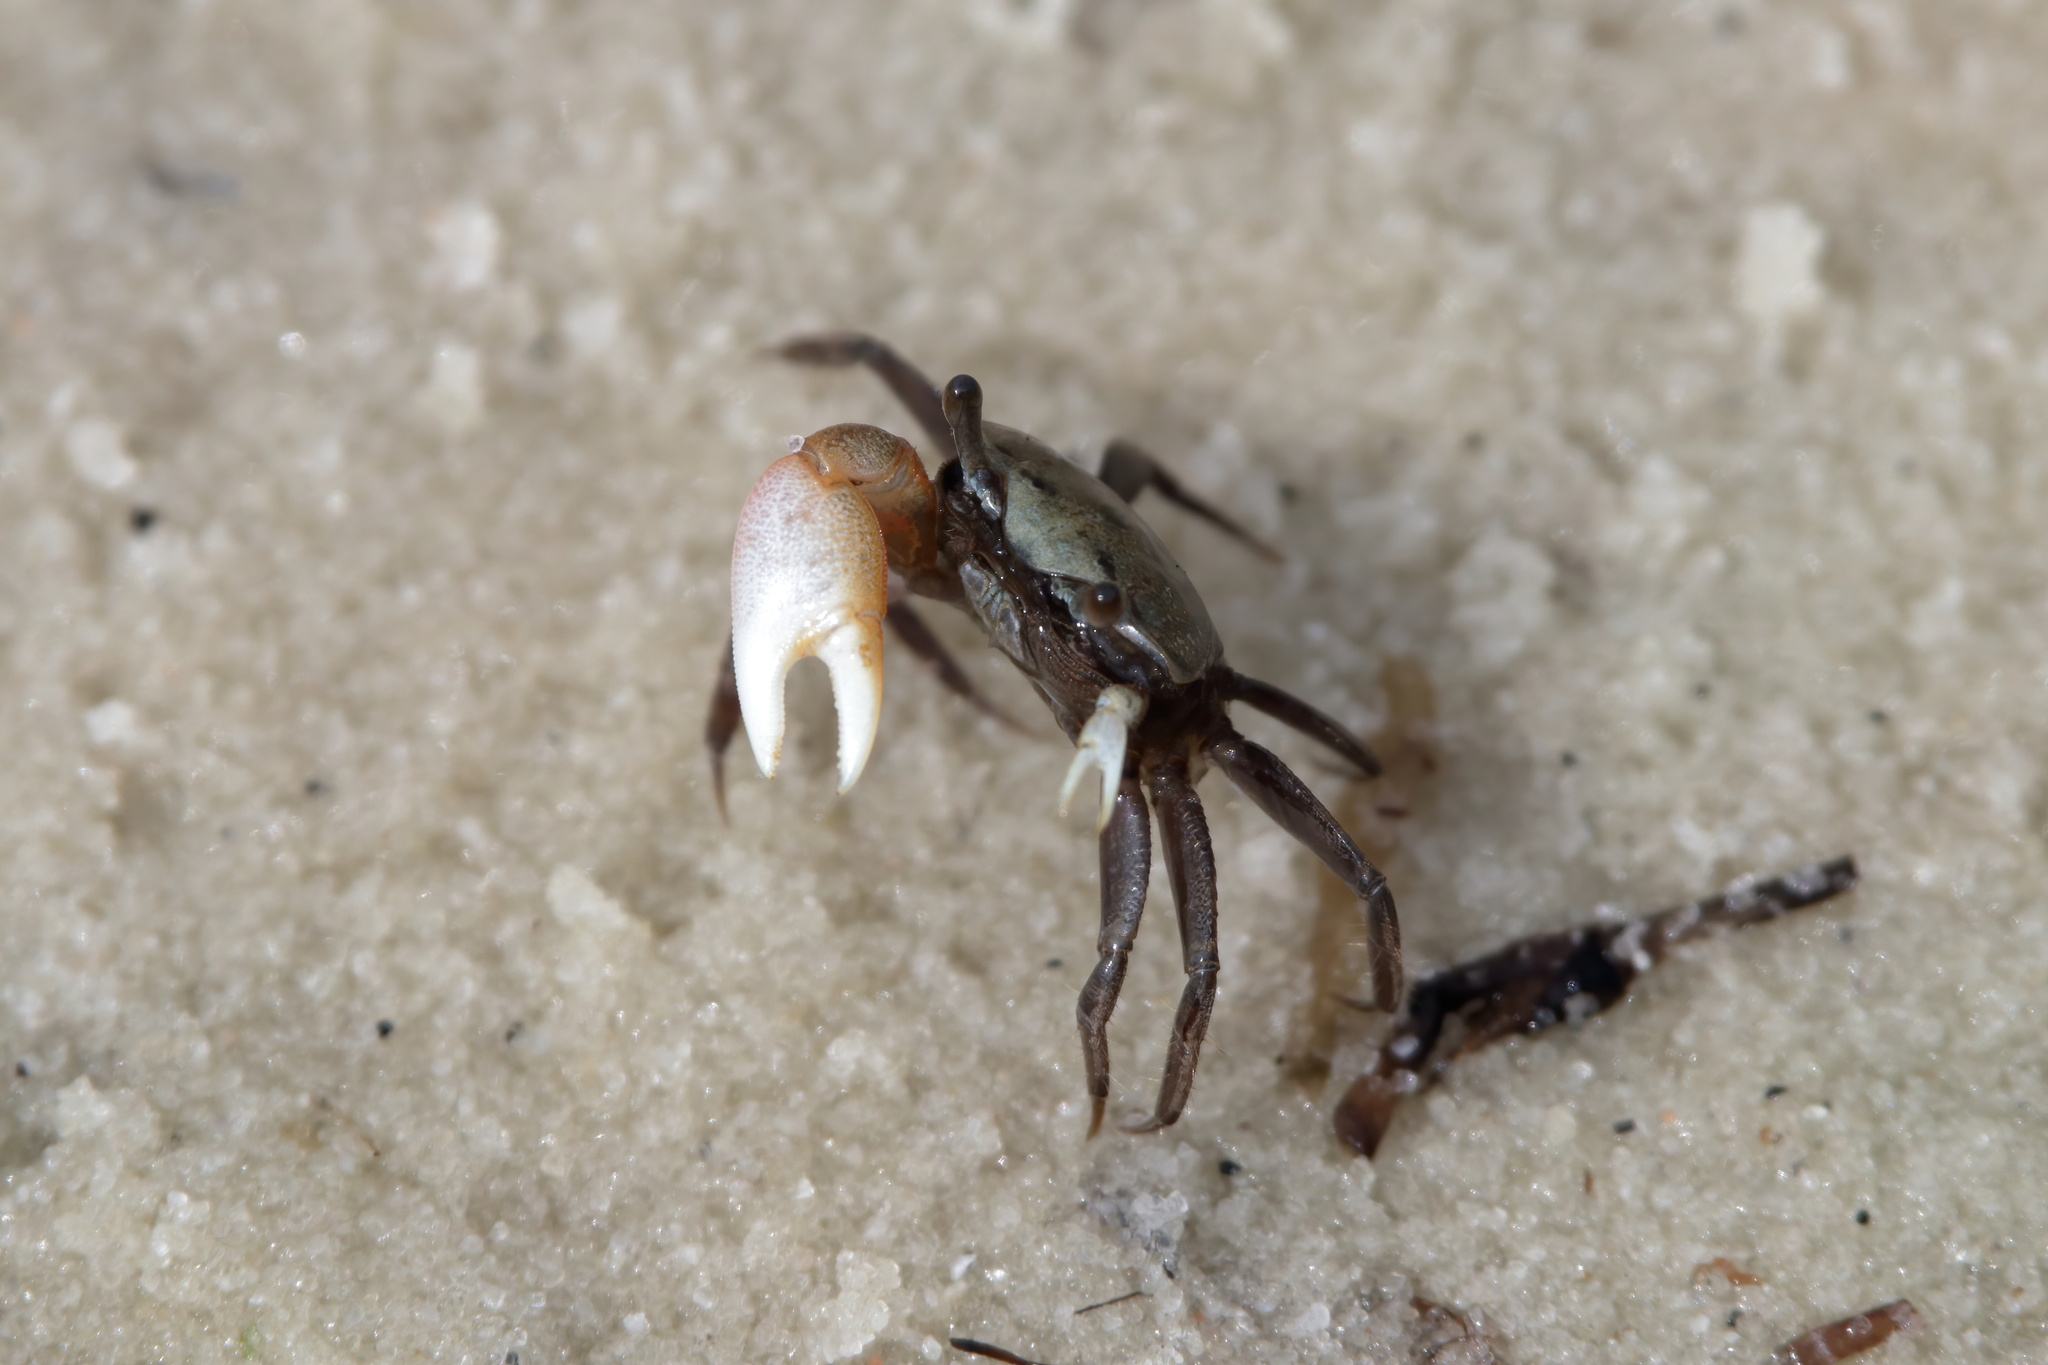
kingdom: Animalia
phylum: Arthropoda
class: Malacostraca
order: Decapoda
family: Ocypodidae
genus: Minuca
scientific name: Minuca longisignalis
